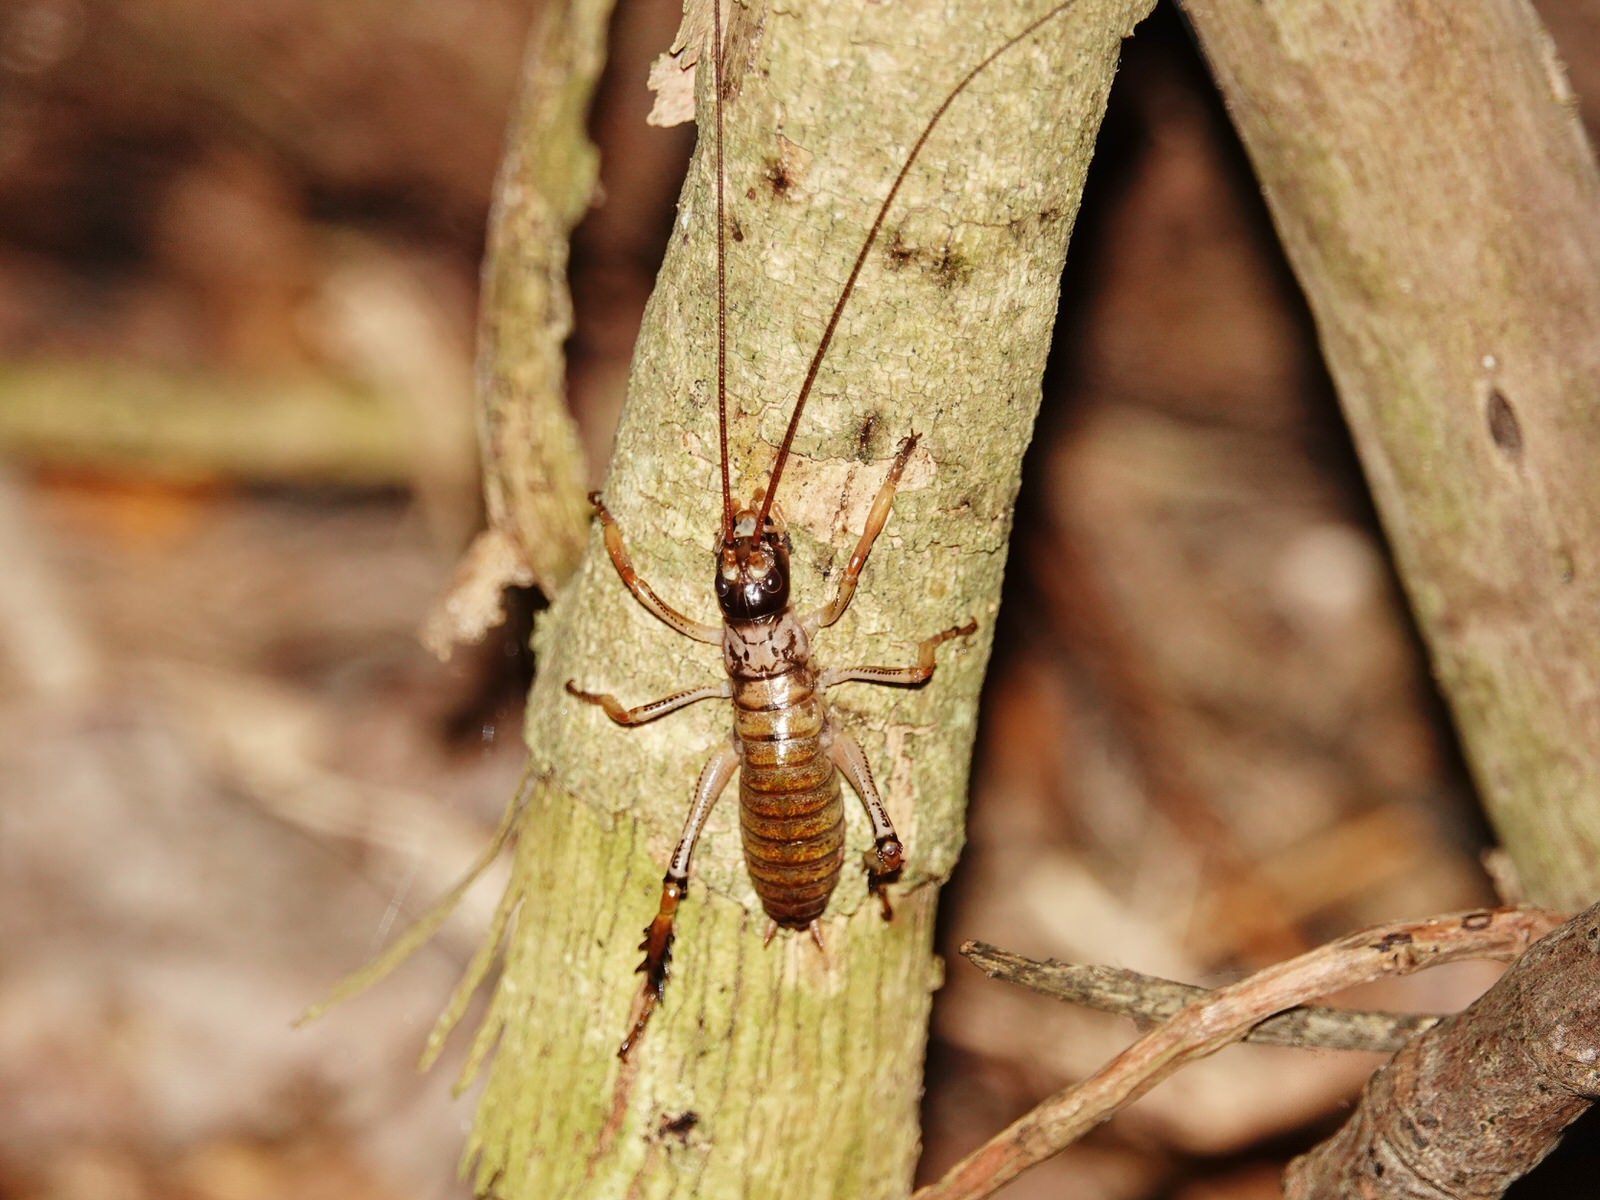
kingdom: Animalia
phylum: Arthropoda
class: Insecta
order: Orthoptera
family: Anostostomatidae
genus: Hemideina
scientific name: Hemideina thoracica
